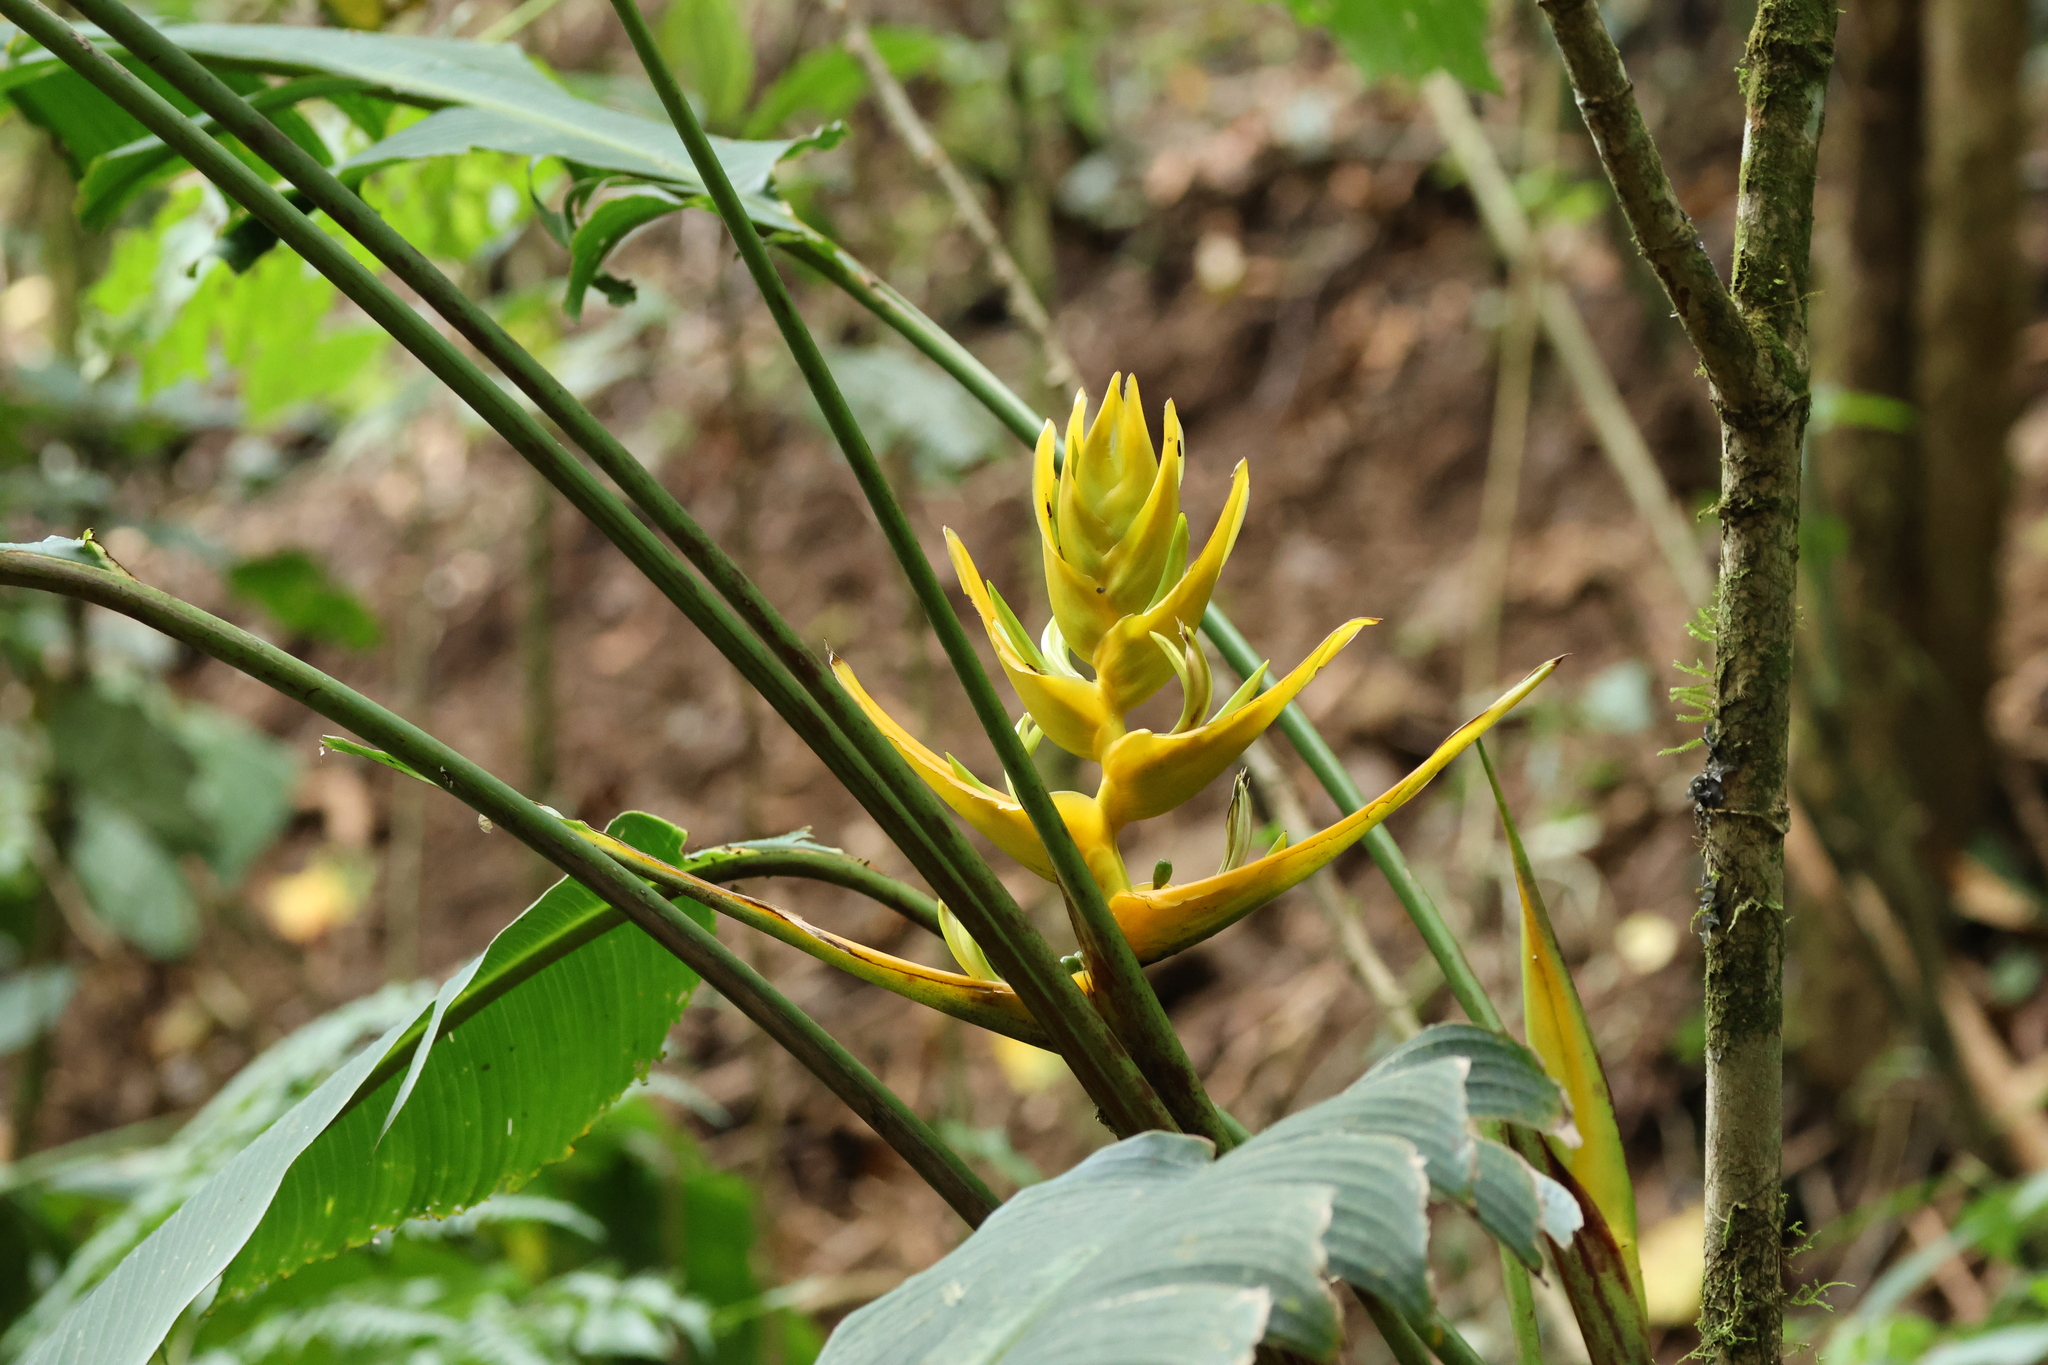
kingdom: Plantae
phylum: Tracheophyta
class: Liliopsida
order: Zingiberales
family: Heliconiaceae
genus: Heliconia
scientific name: Heliconia lankesteri
